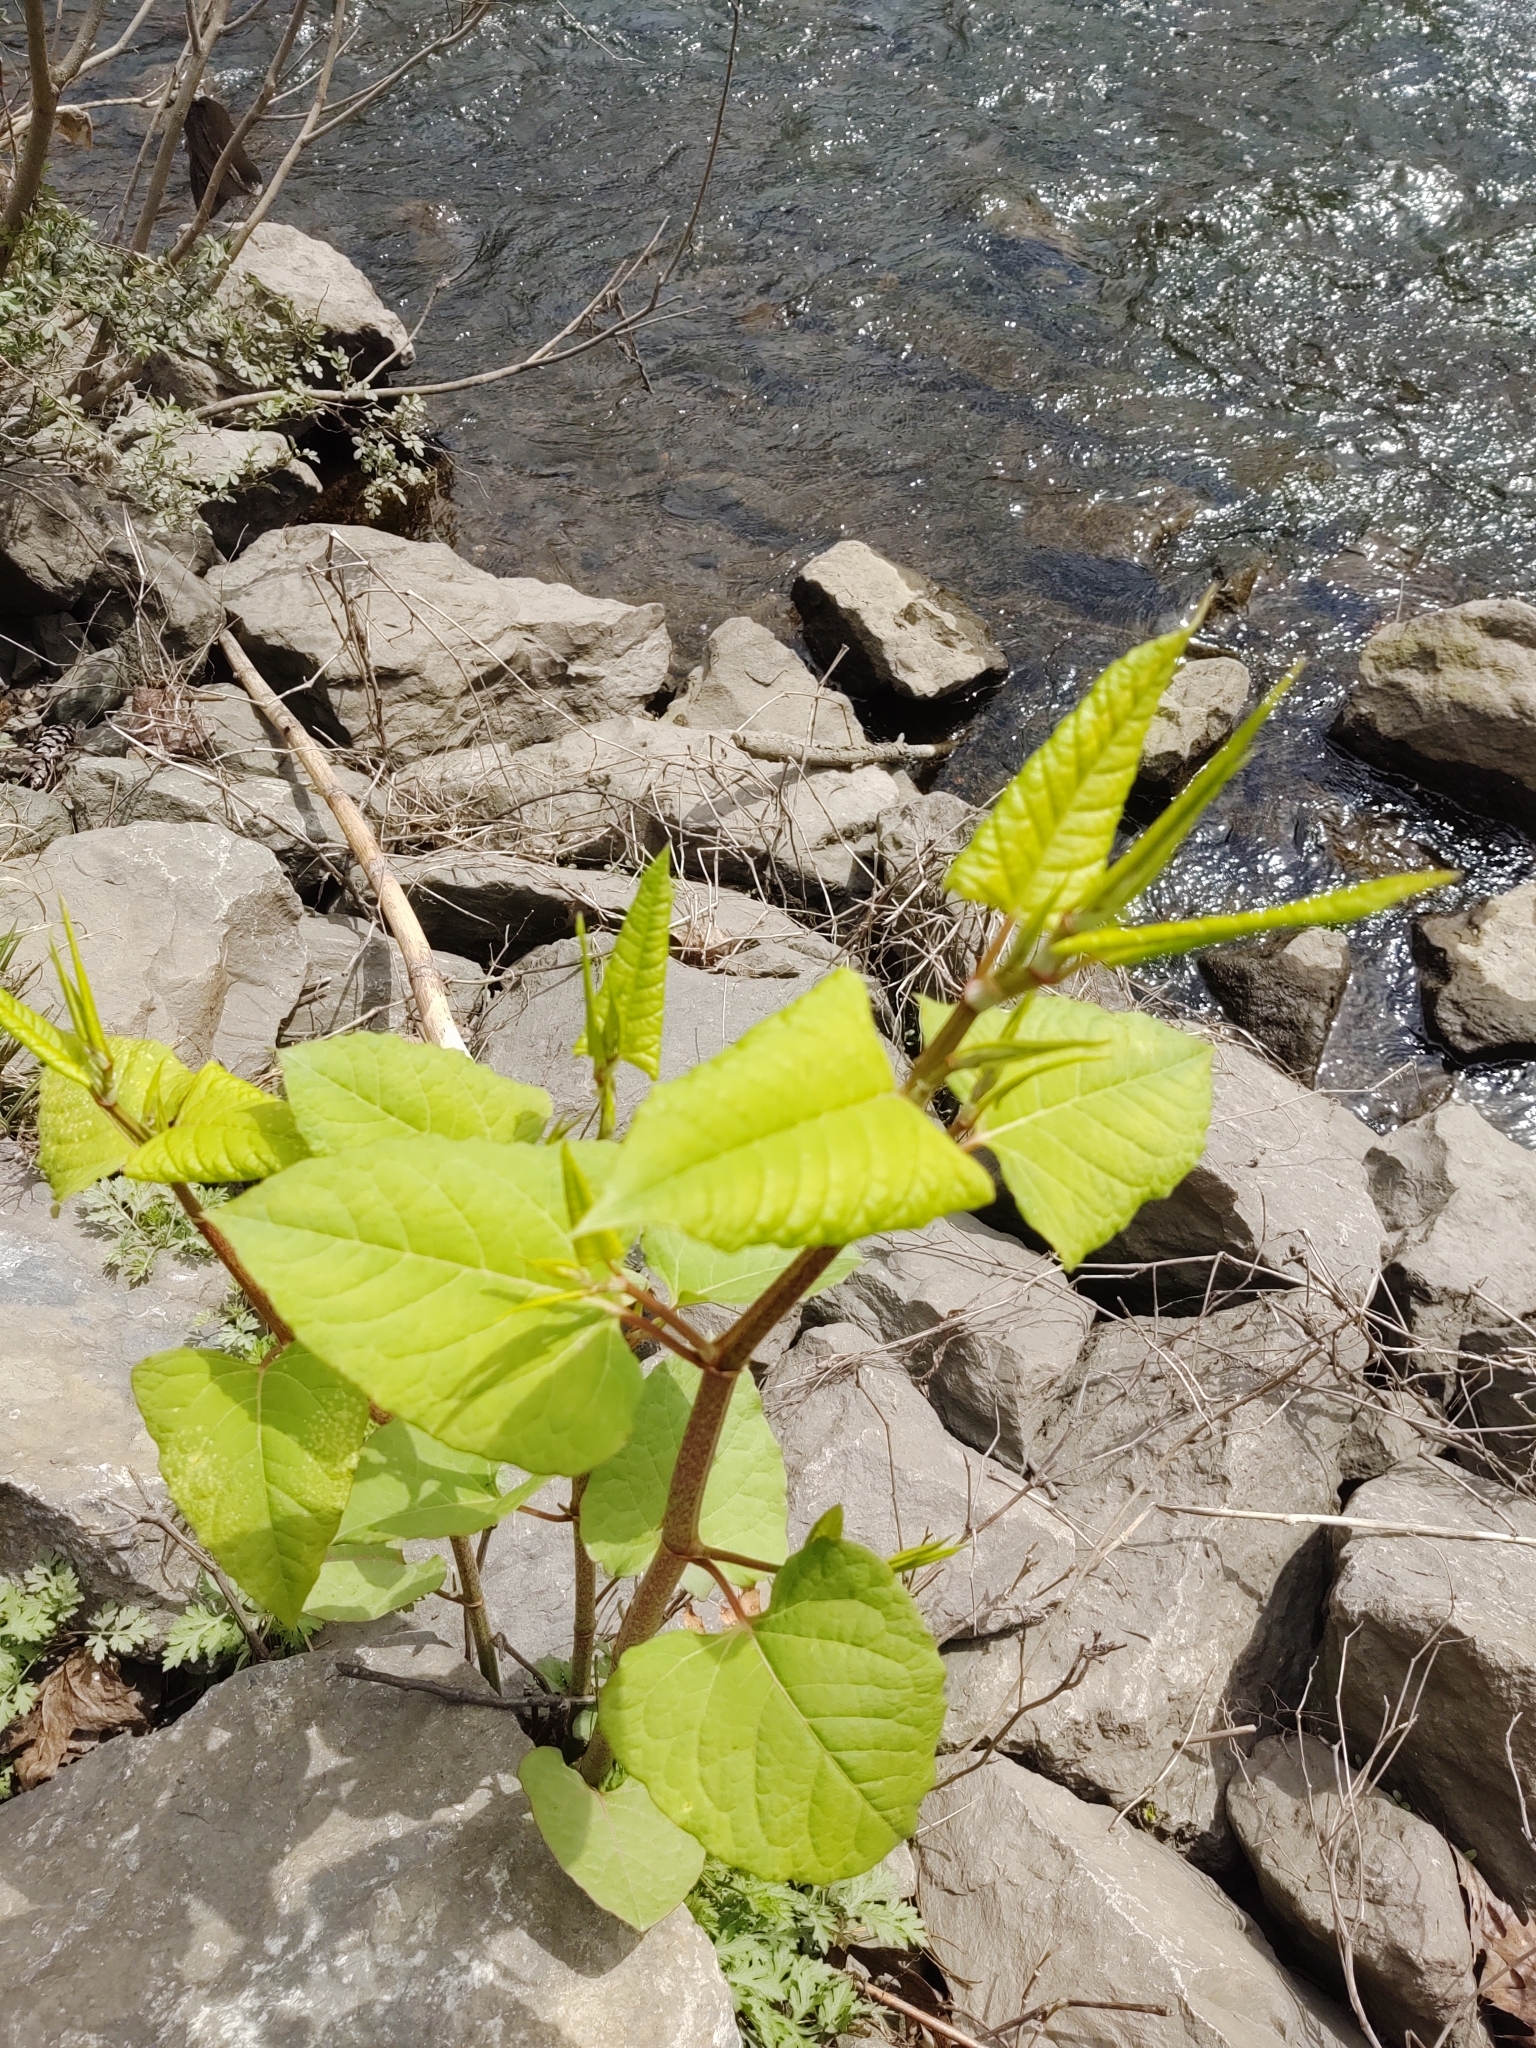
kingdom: Plantae
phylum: Tracheophyta
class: Magnoliopsida
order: Caryophyllales
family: Polygonaceae
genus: Reynoutria
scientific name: Reynoutria japonica
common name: Japanese knotweed
